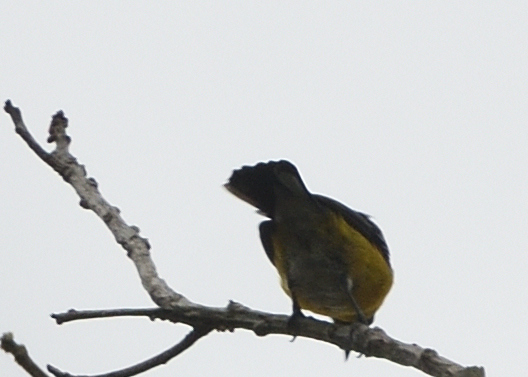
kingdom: Animalia
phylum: Chordata
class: Aves
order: Passeriformes
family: Fringillidae
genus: Euphonia
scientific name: Euphonia minuta
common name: White-vented euphonia
